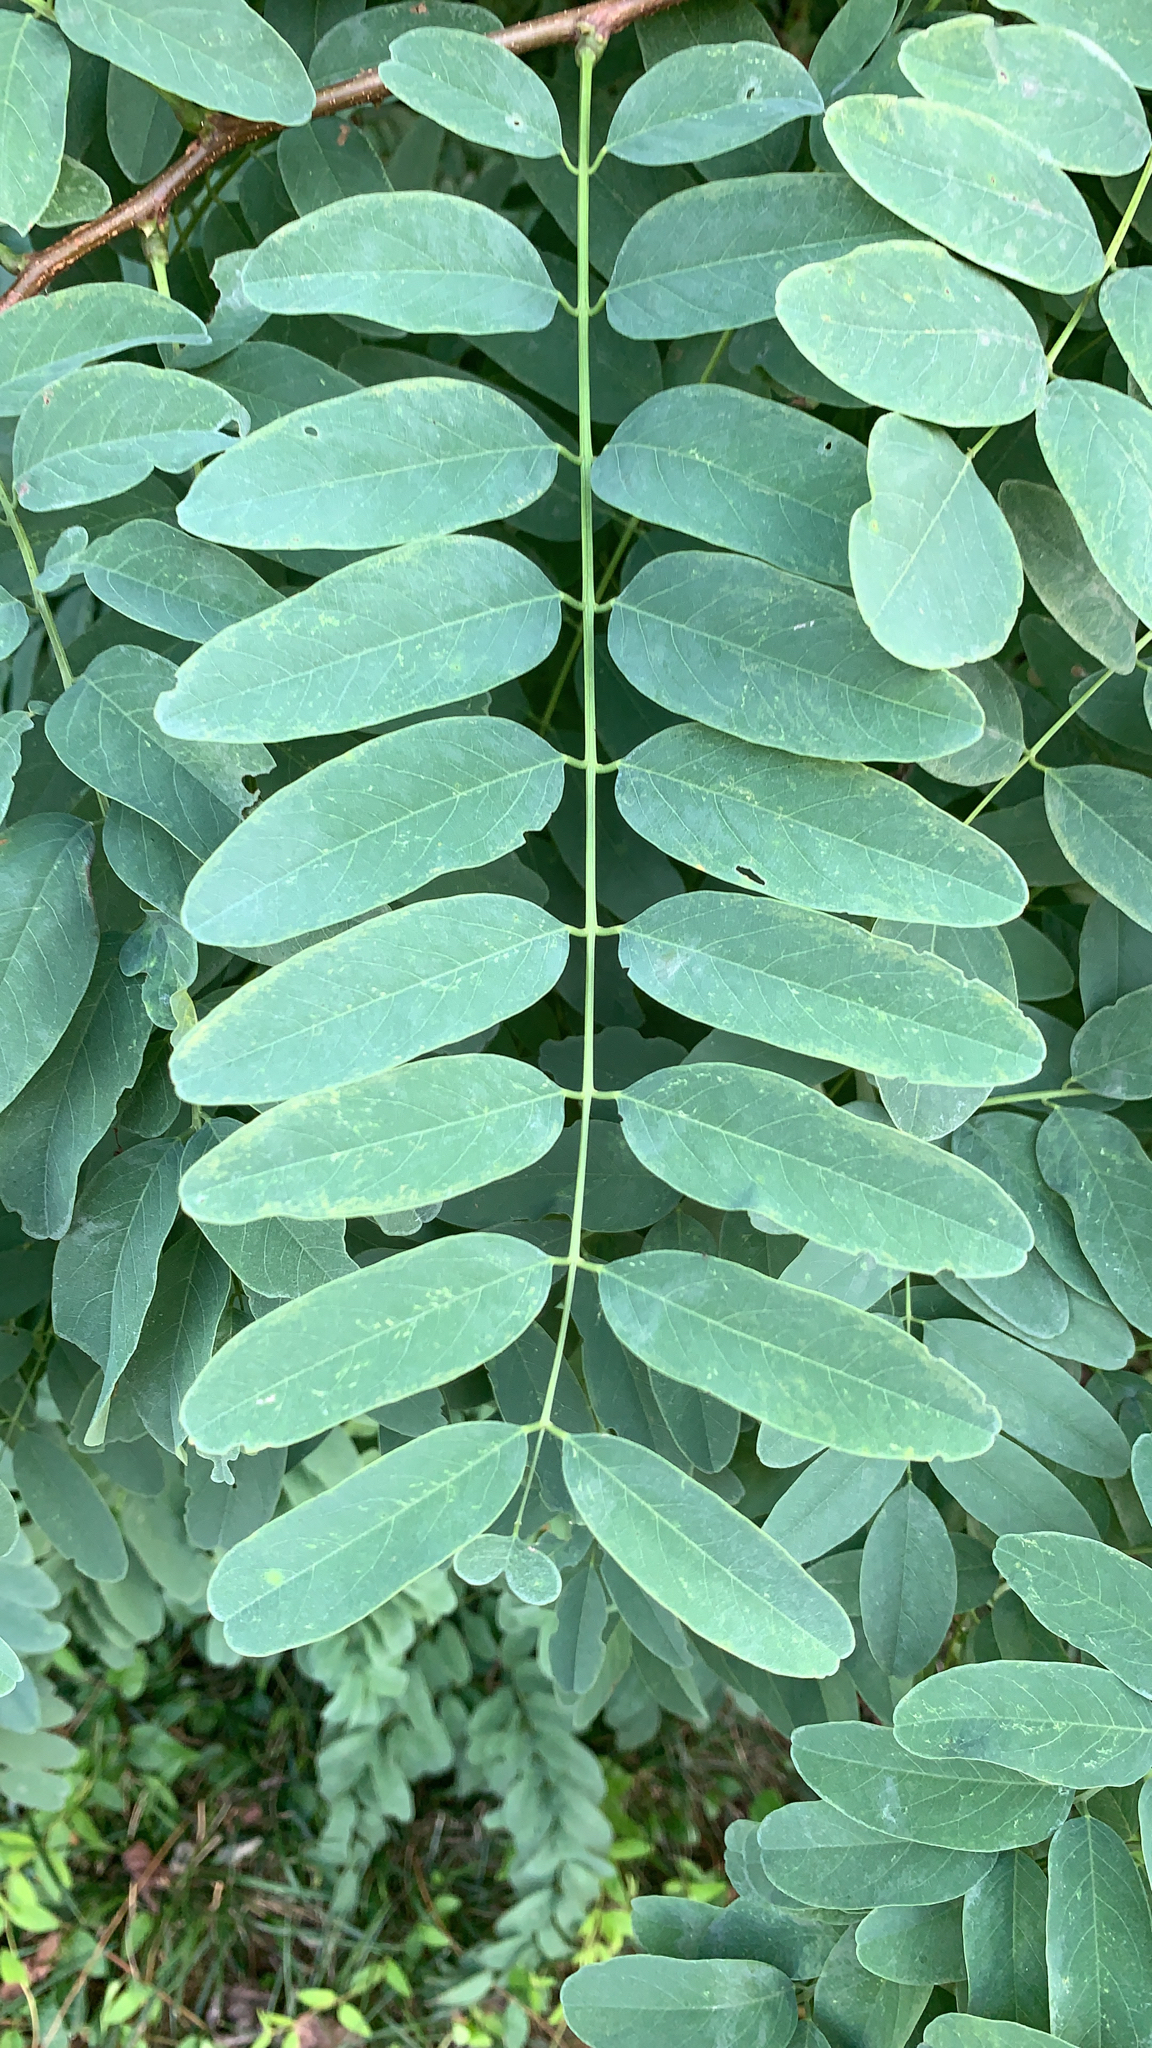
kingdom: Plantae
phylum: Tracheophyta
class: Magnoliopsida
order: Fabales
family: Fabaceae
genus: Robinia
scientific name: Robinia pseudoacacia
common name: Black locust
